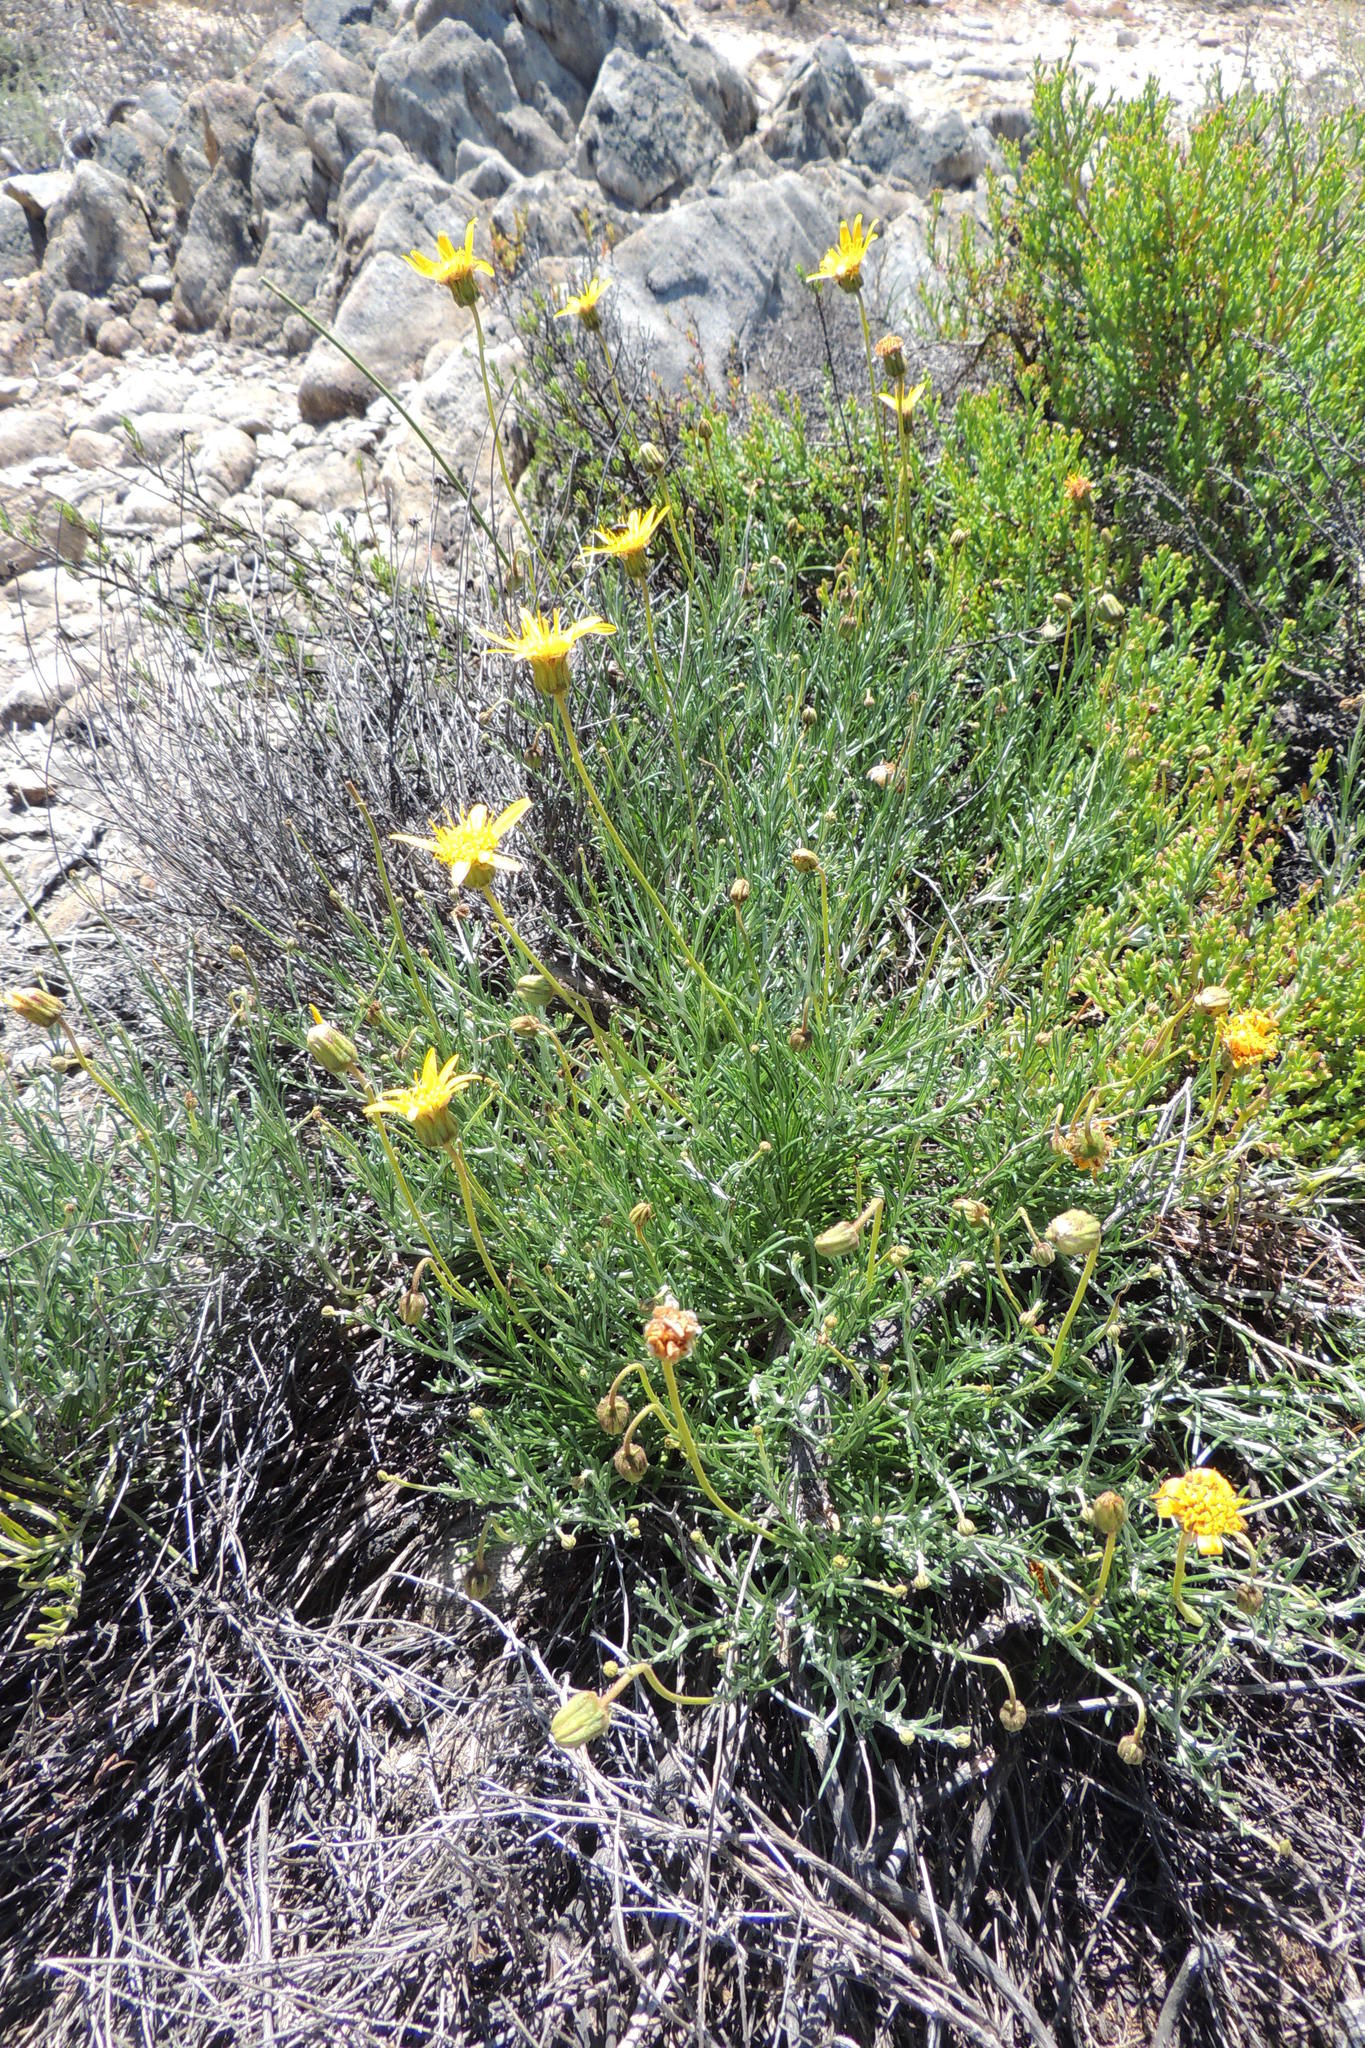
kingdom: Plantae
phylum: Tracheophyta
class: Magnoliopsida
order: Asterales
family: Asteraceae
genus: Heterolepis
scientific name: Heterolepis peduncularis
